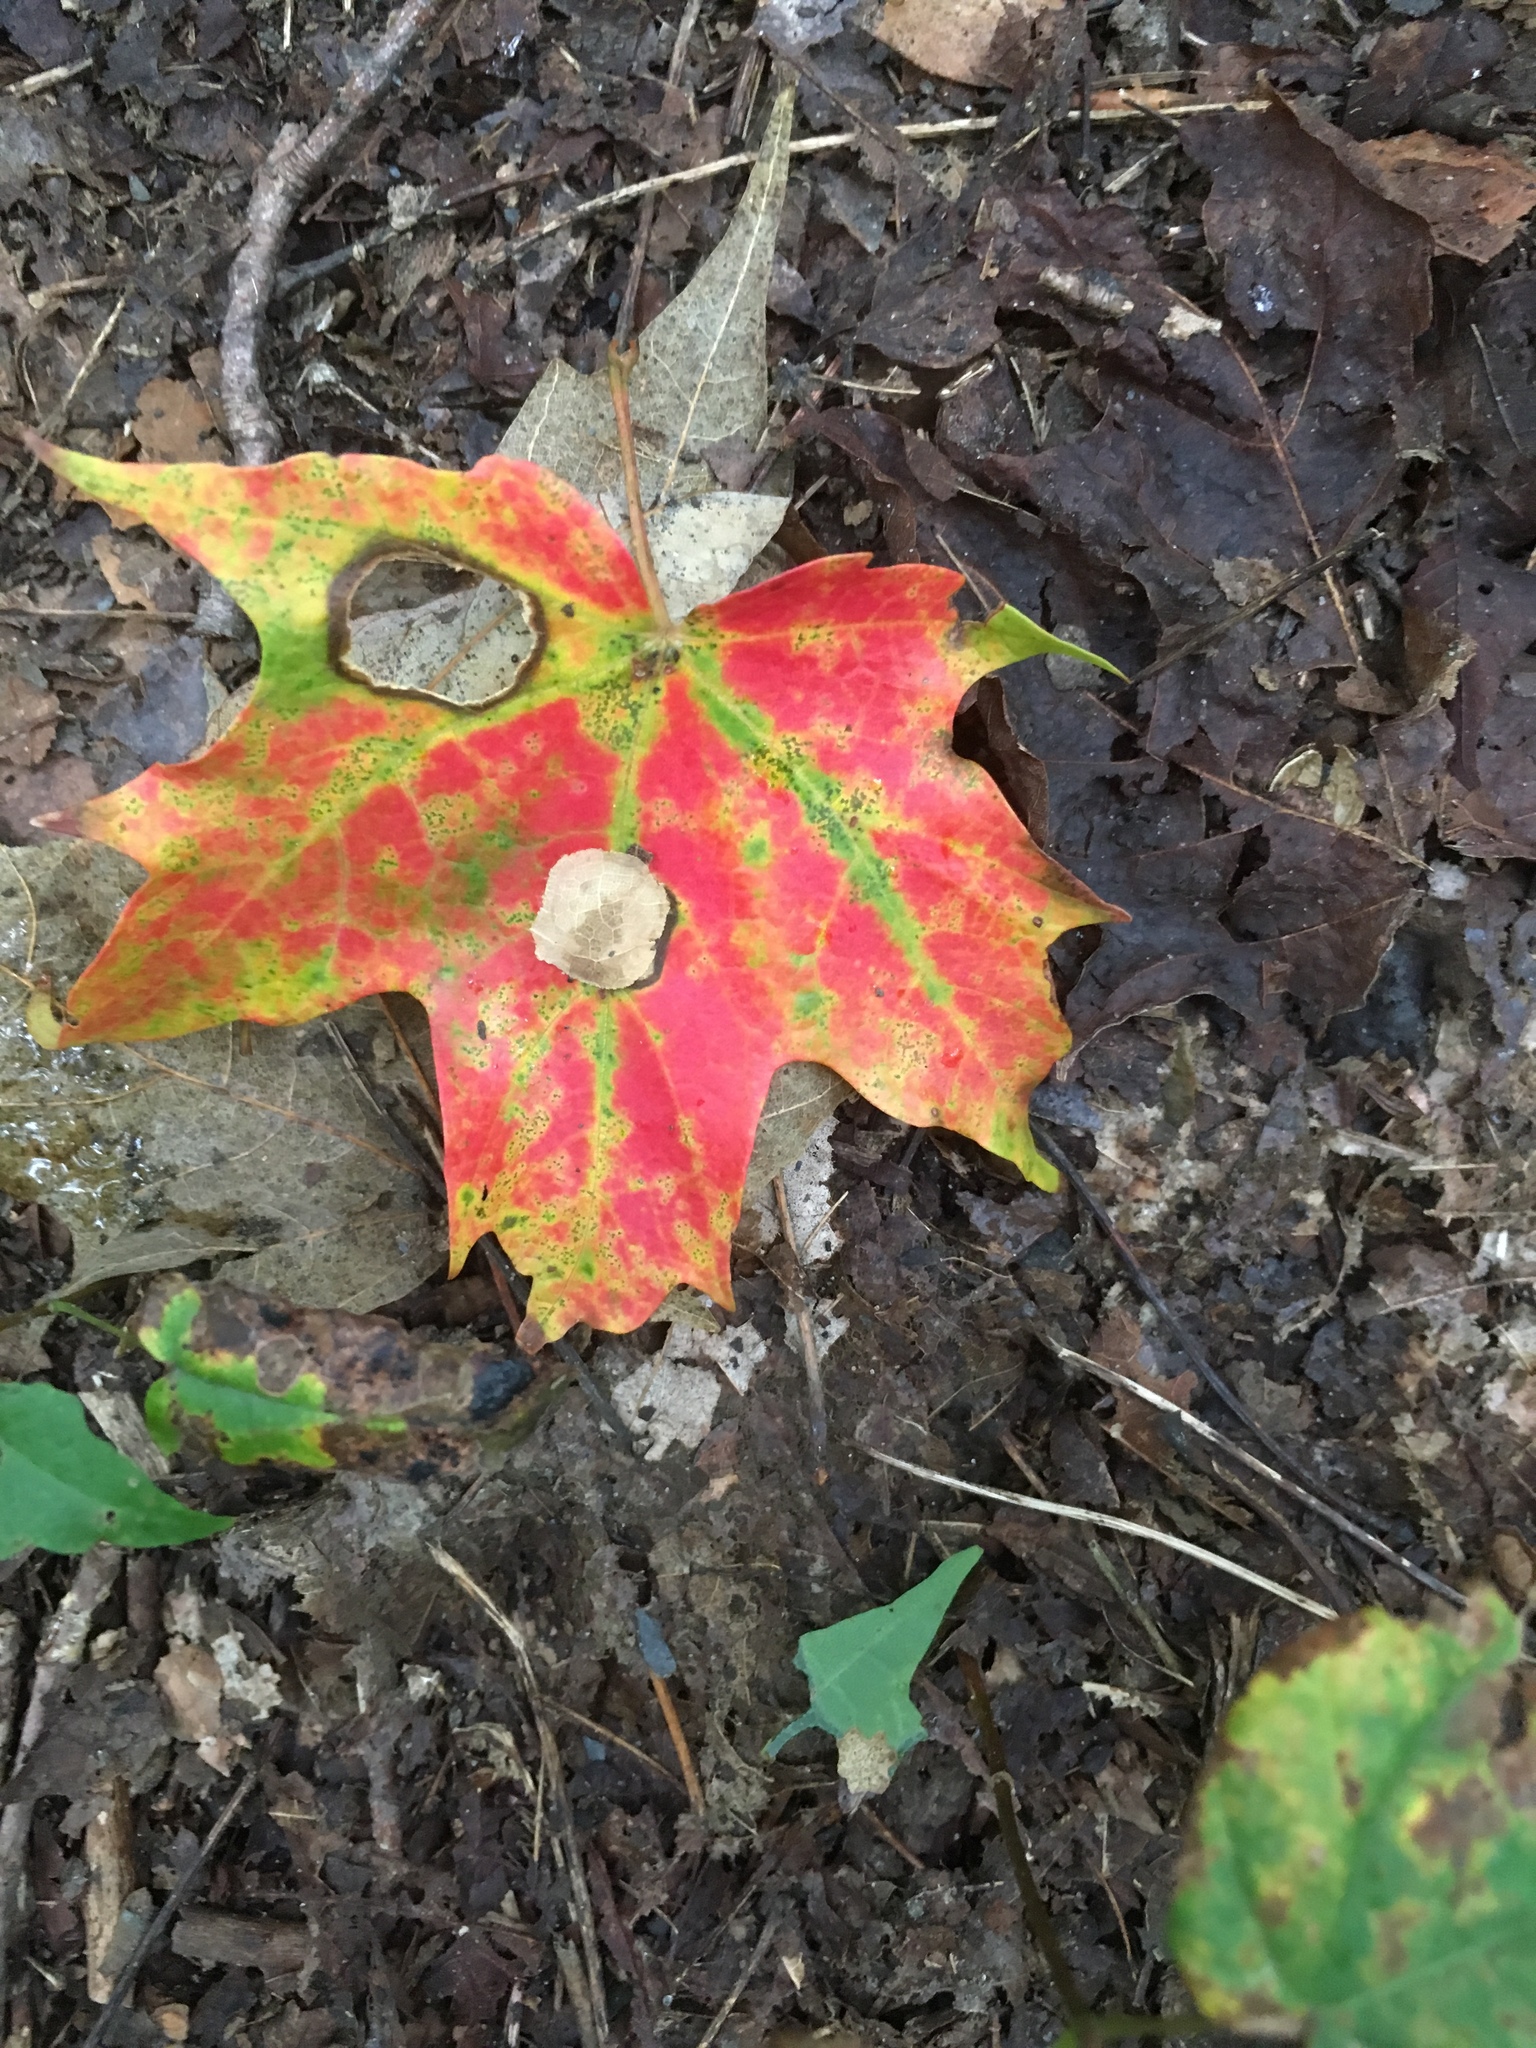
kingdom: Plantae
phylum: Tracheophyta
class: Magnoliopsida
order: Sapindales
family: Sapindaceae
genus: Acer
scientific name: Acer saccharum
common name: Sugar maple
